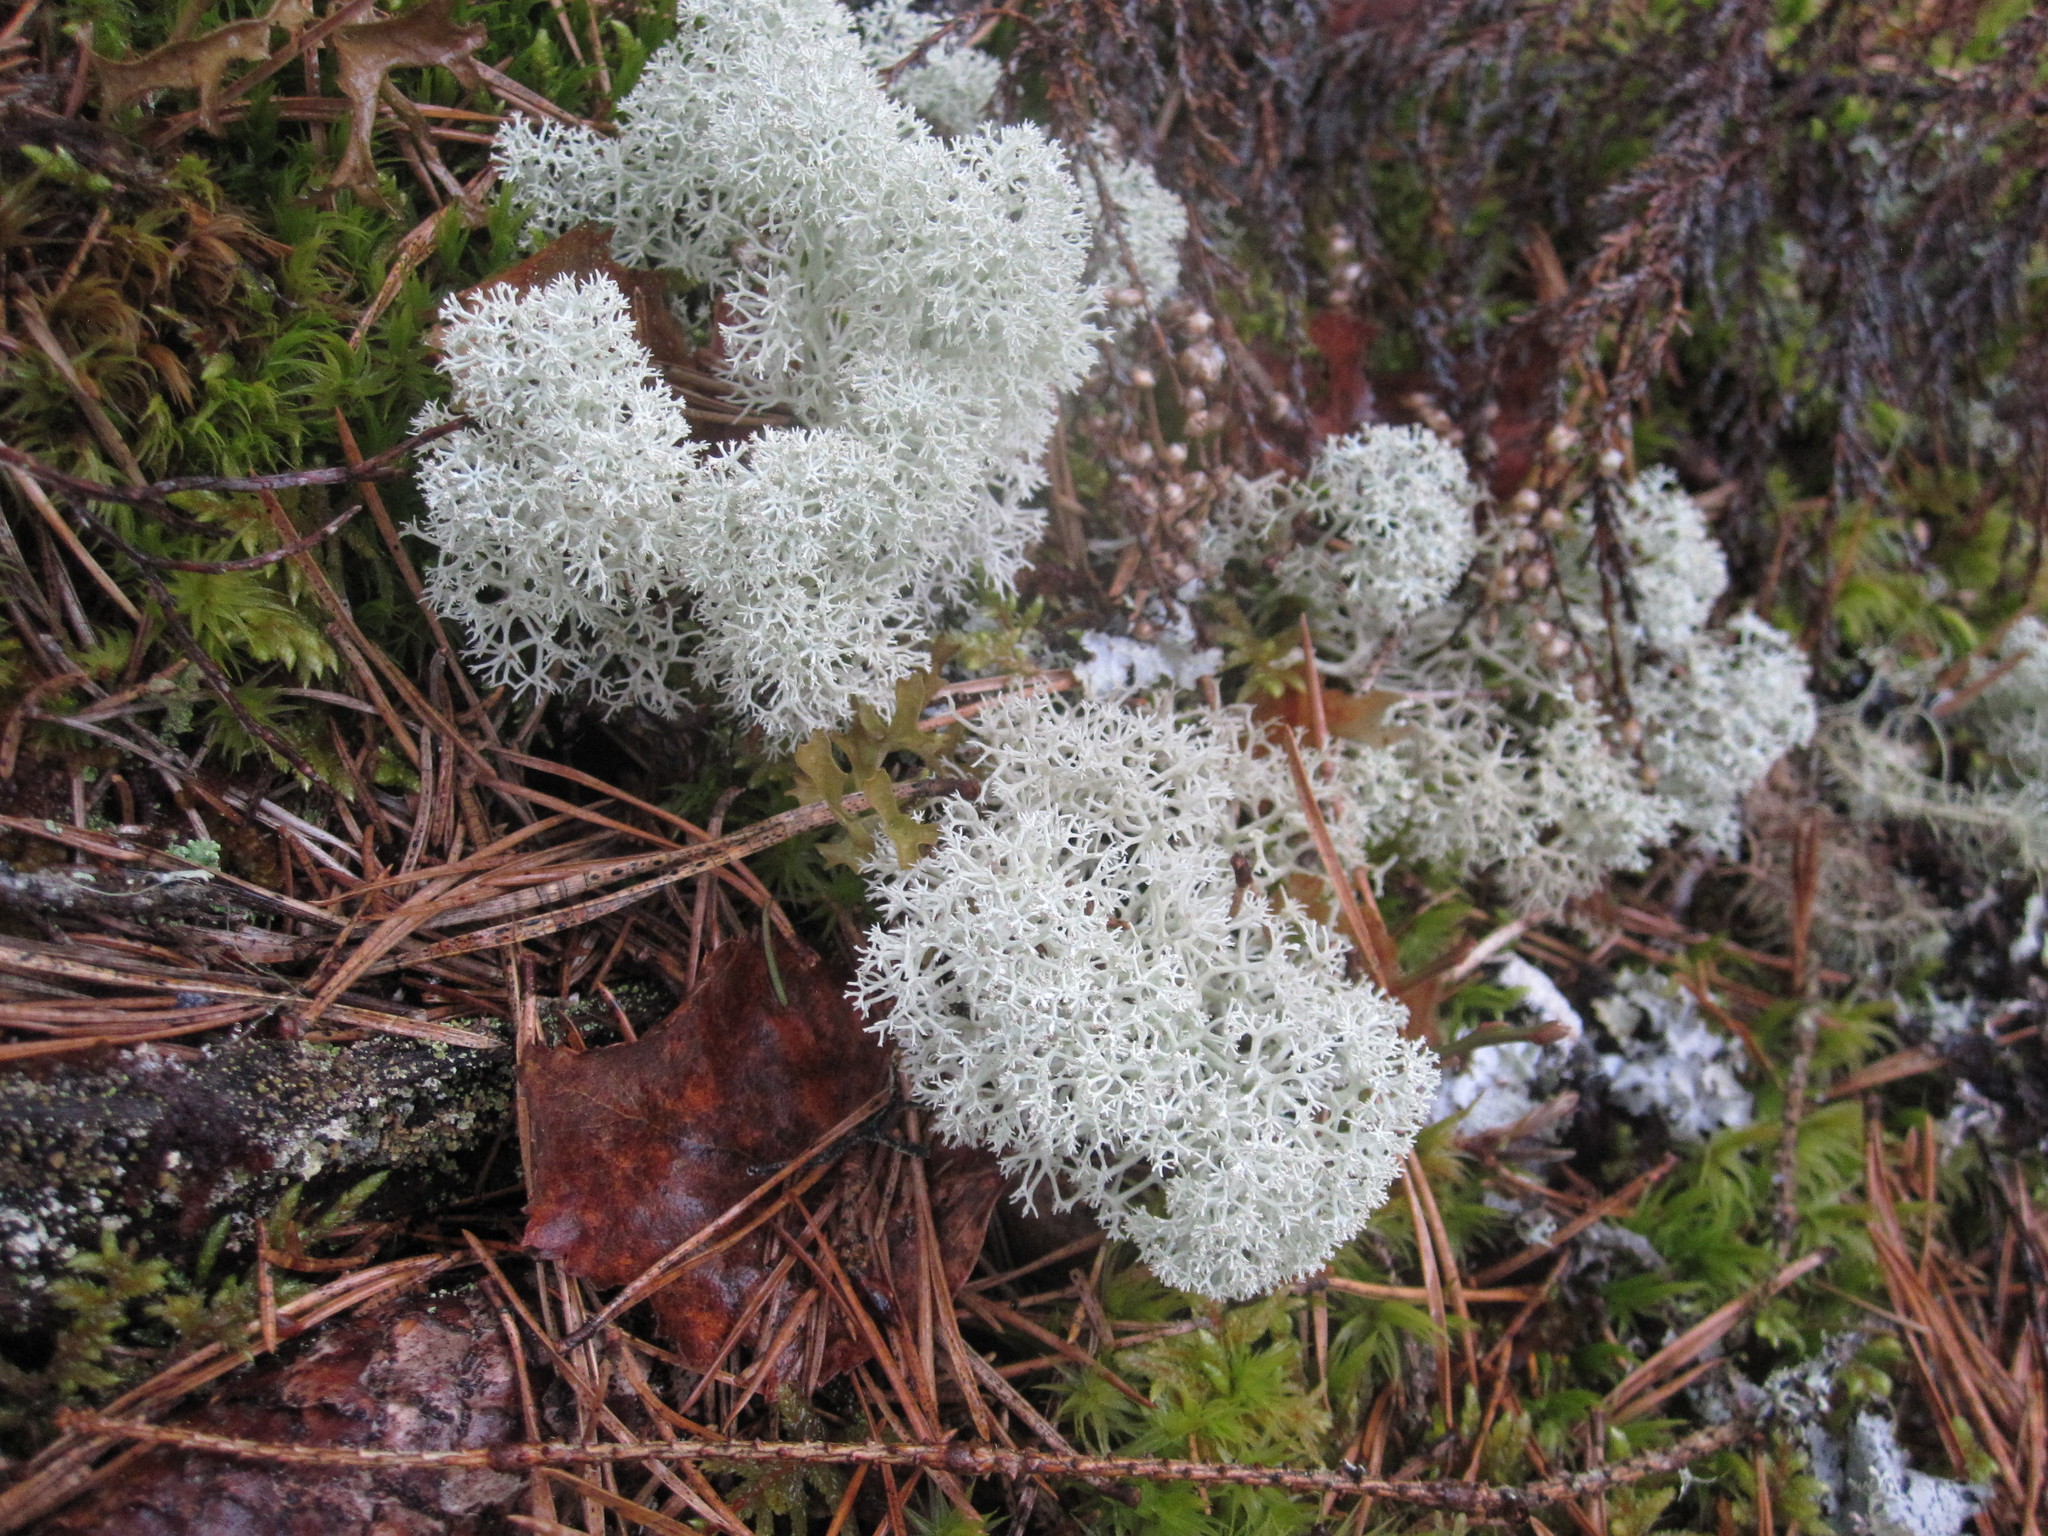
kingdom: Fungi
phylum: Ascomycota
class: Lecanoromycetes
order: Lecanorales
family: Cladoniaceae
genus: Cladonia
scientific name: Cladonia stellaris
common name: Star-tipped reindeer lichen
